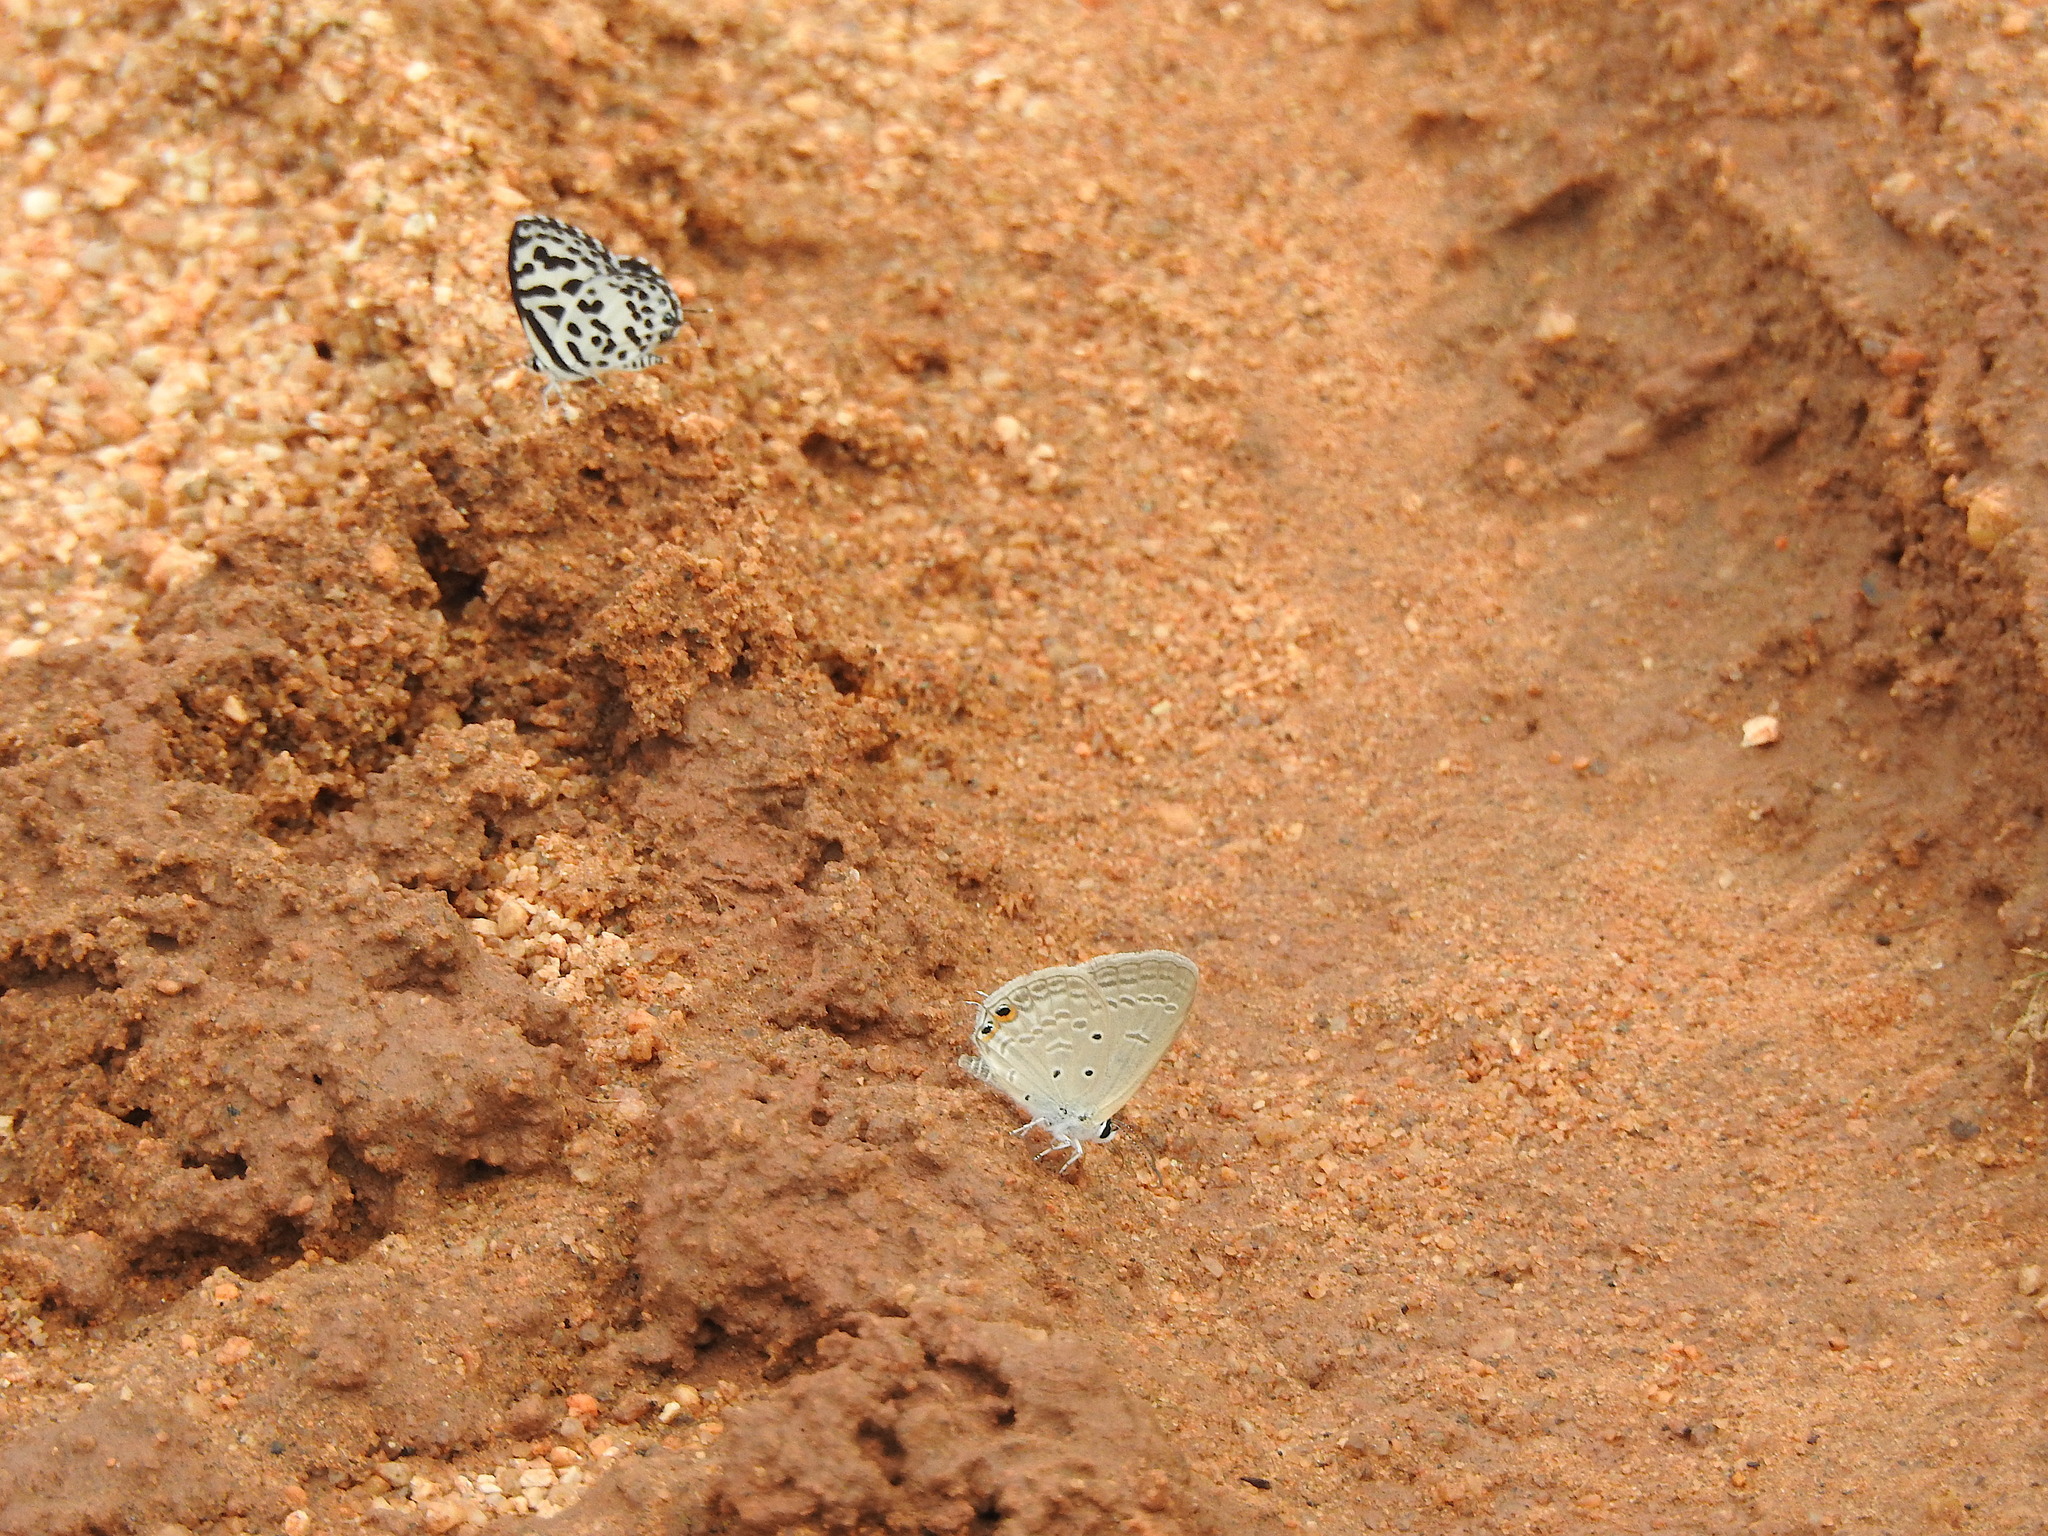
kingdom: Animalia
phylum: Arthropoda
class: Insecta
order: Lepidoptera
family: Lycaenidae
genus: Castalius
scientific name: Castalius rosimon
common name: Common pierrot
